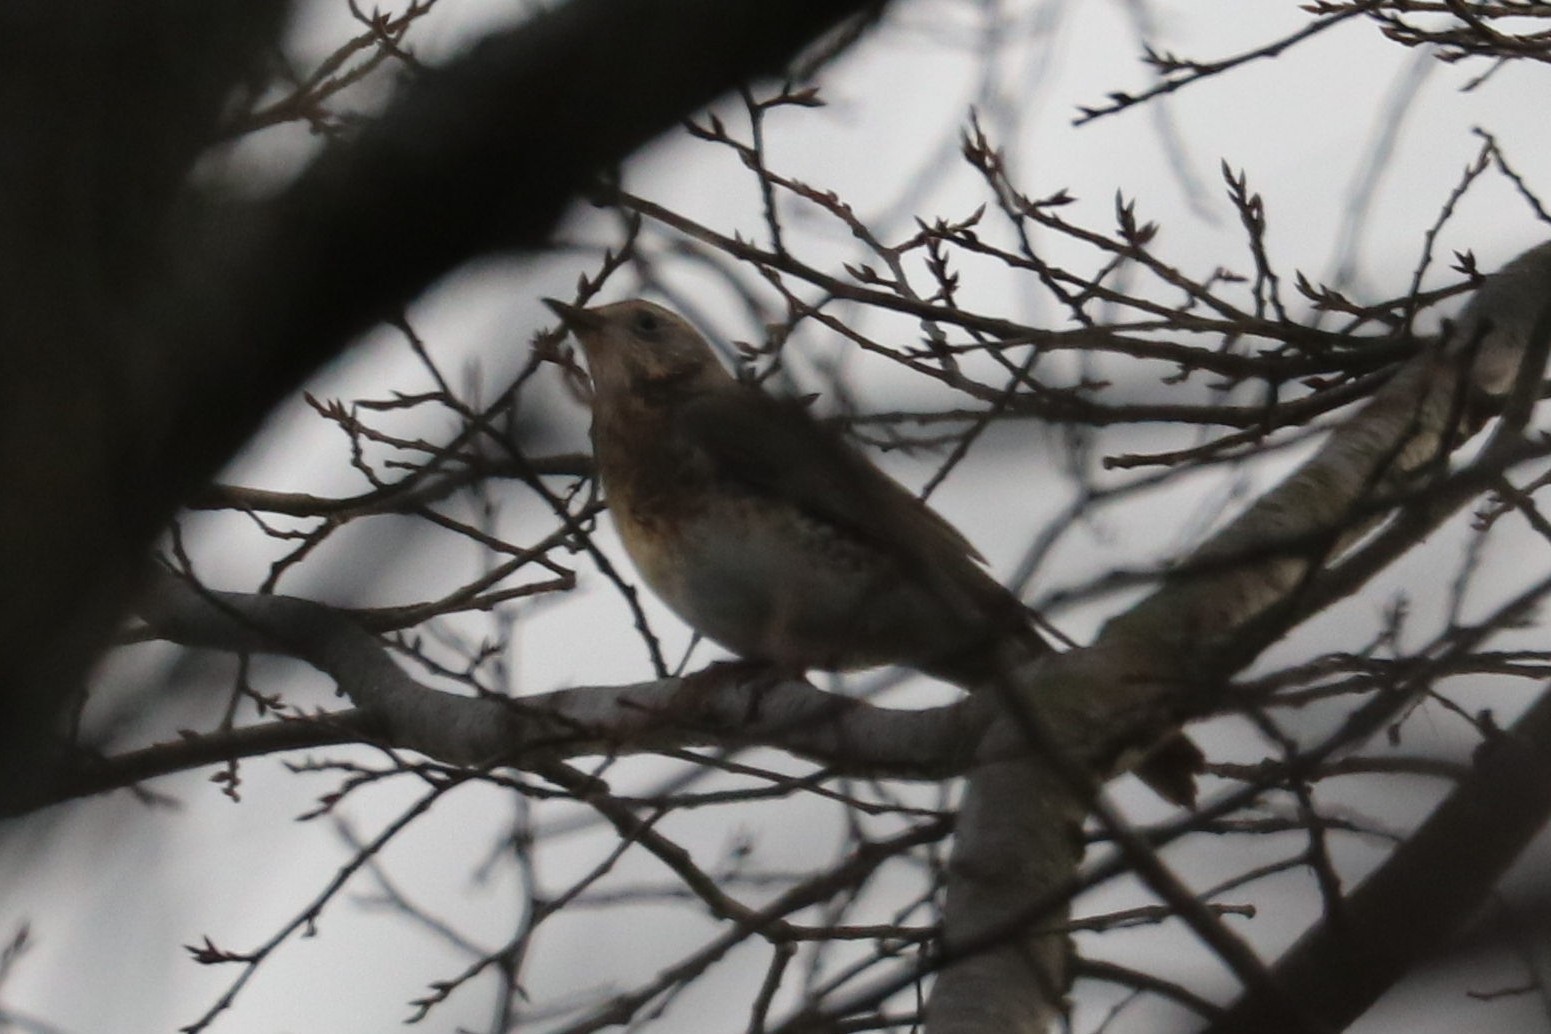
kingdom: Animalia
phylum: Chordata
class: Aves
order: Passeriformes
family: Turdidae
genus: Turdus
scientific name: Turdus pilaris
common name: Fieldfare
